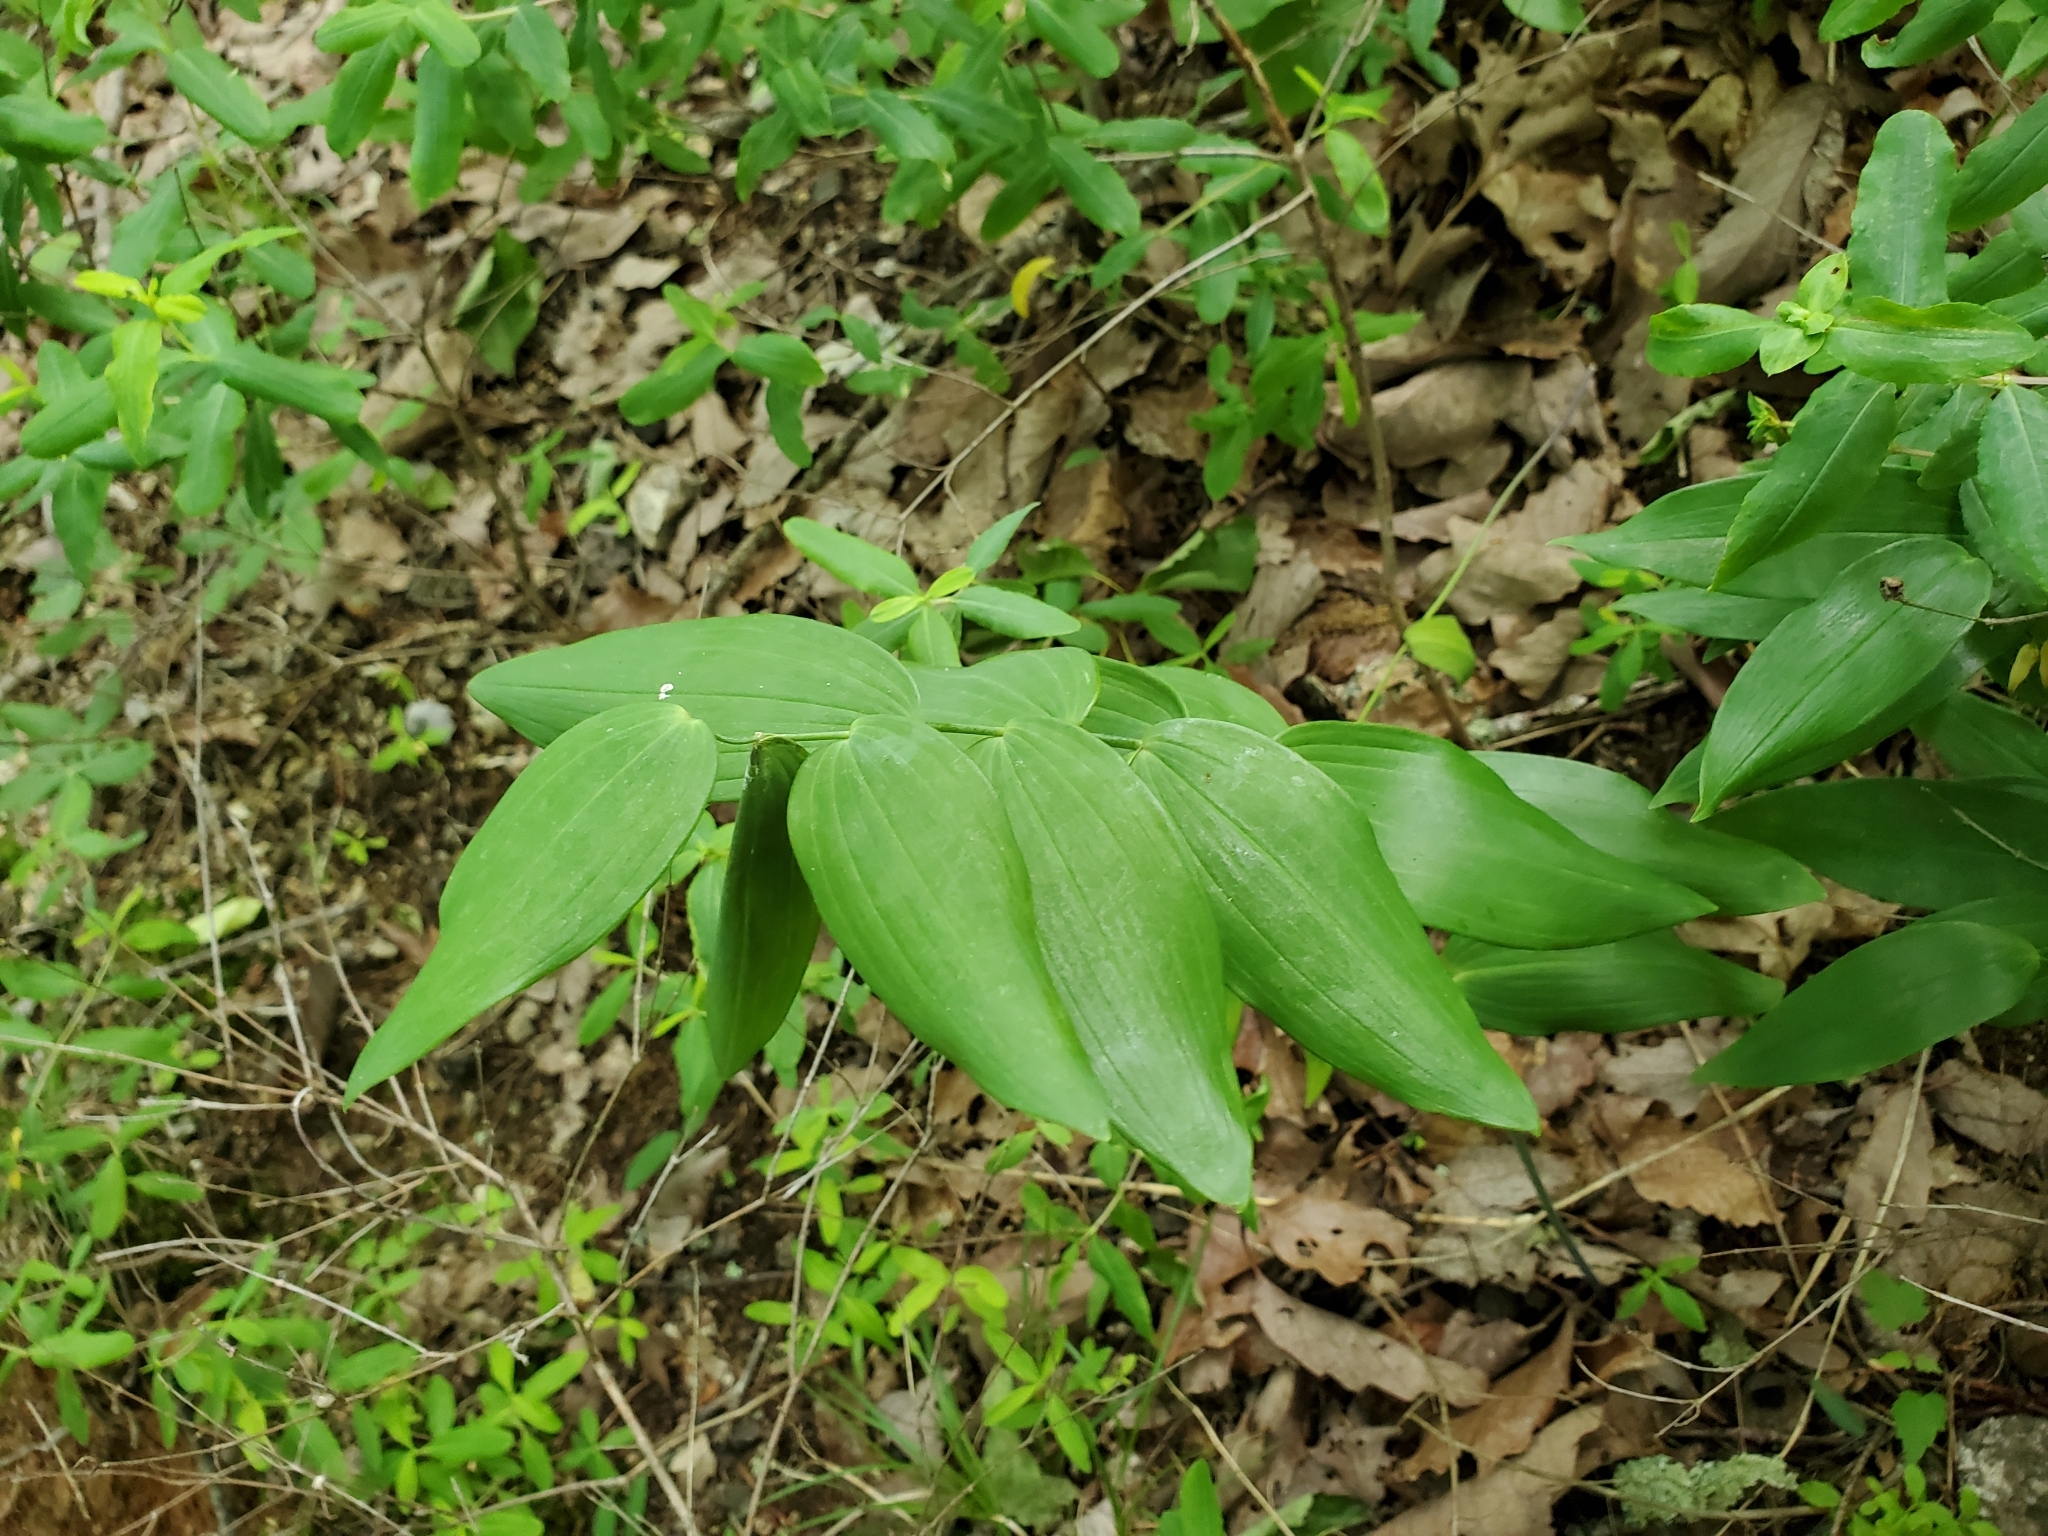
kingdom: Plantae
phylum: Tracheophyta
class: Liliopsida
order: Asparagales
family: Asparagaceae
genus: Polygonatum
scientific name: Polygonatum biflorum
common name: American solomon's-seal
